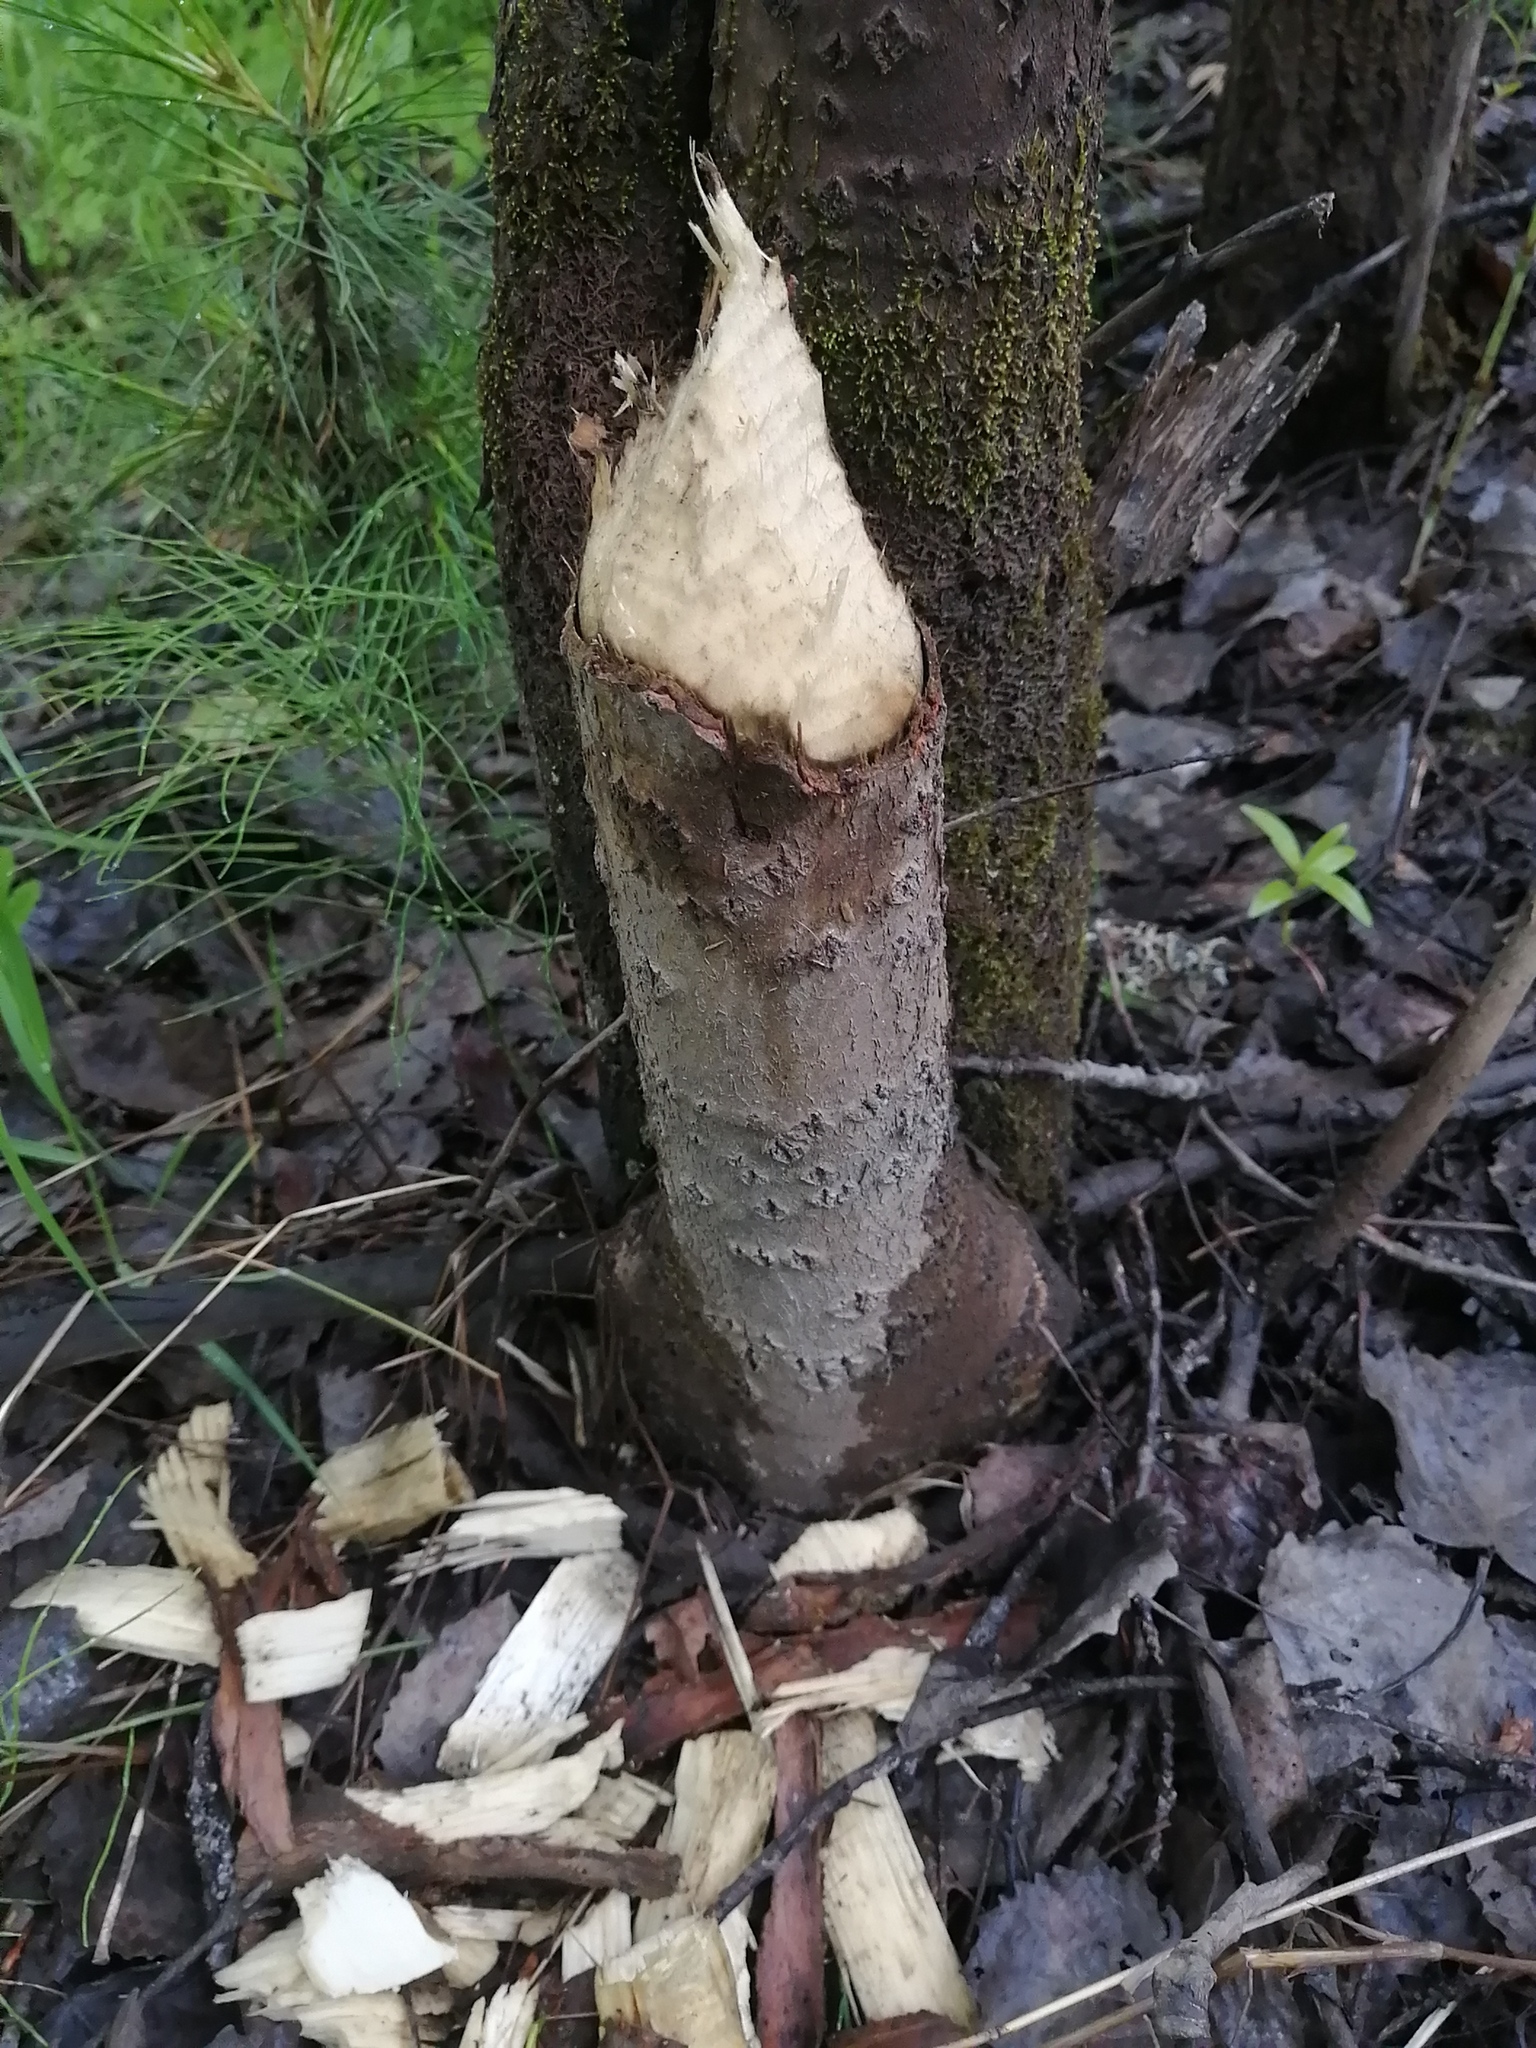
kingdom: Animalia
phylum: Chordata
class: Mammalia
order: Rodentia
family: Castoridae
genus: Castor
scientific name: Castor fiber
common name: Eurasian beaver
